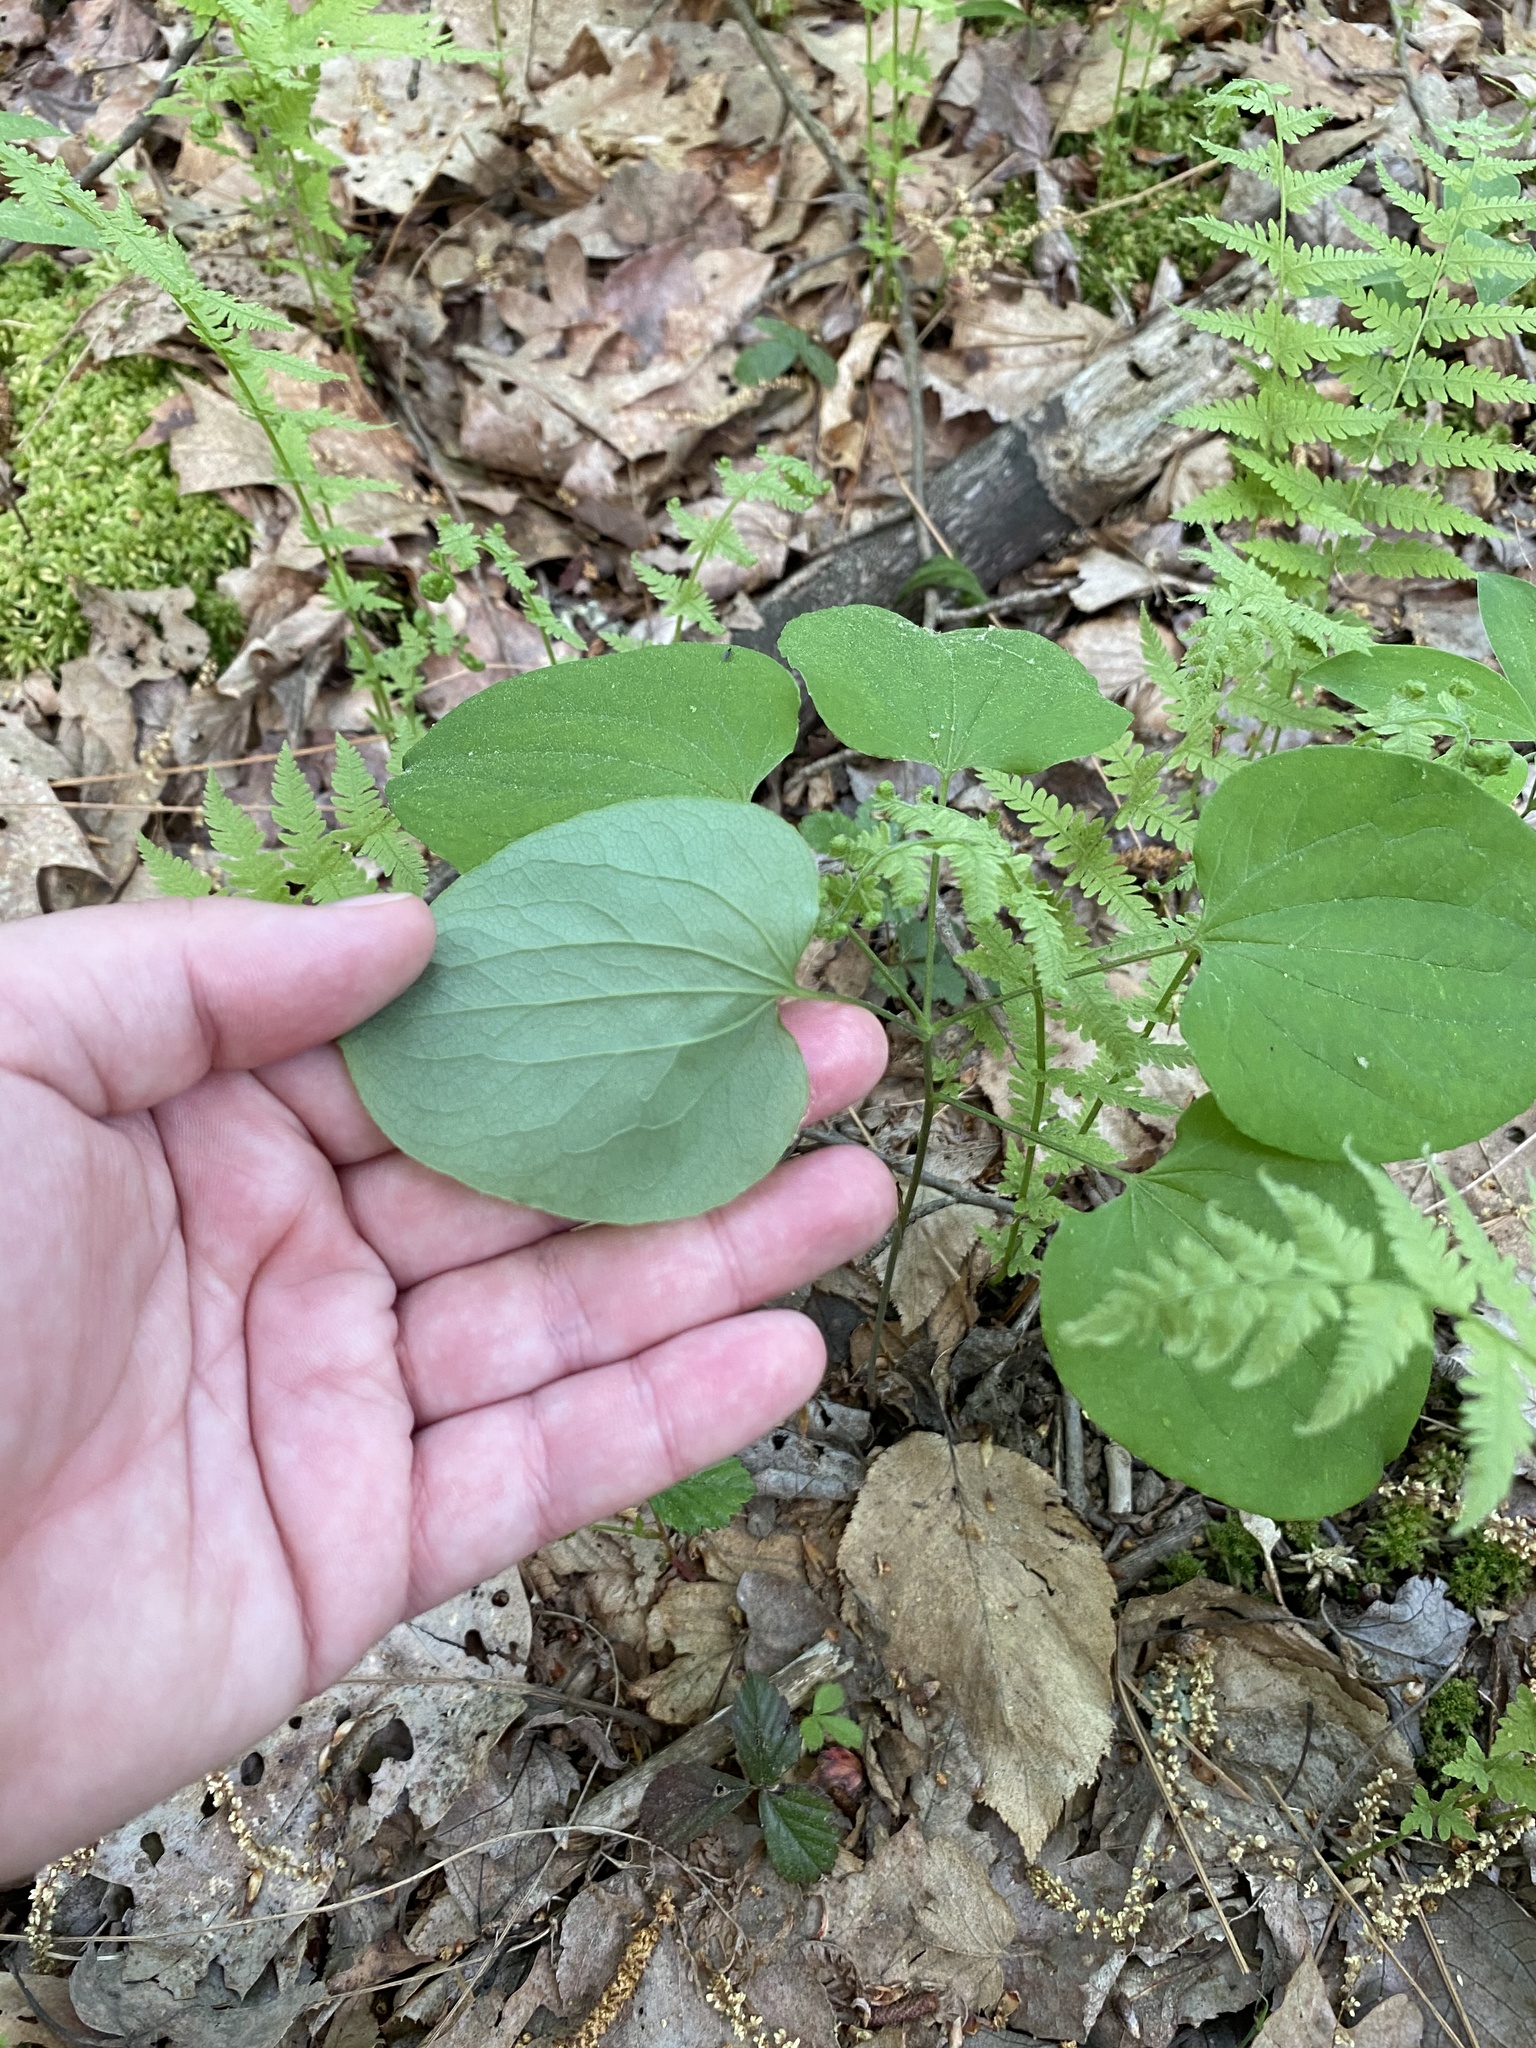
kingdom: Plantae
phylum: Tracheophyta
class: Liliopsida
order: Liliales
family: Smilacaceae
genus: Smilax
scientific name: Smilax herbacea
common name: Jacob's-ladder
